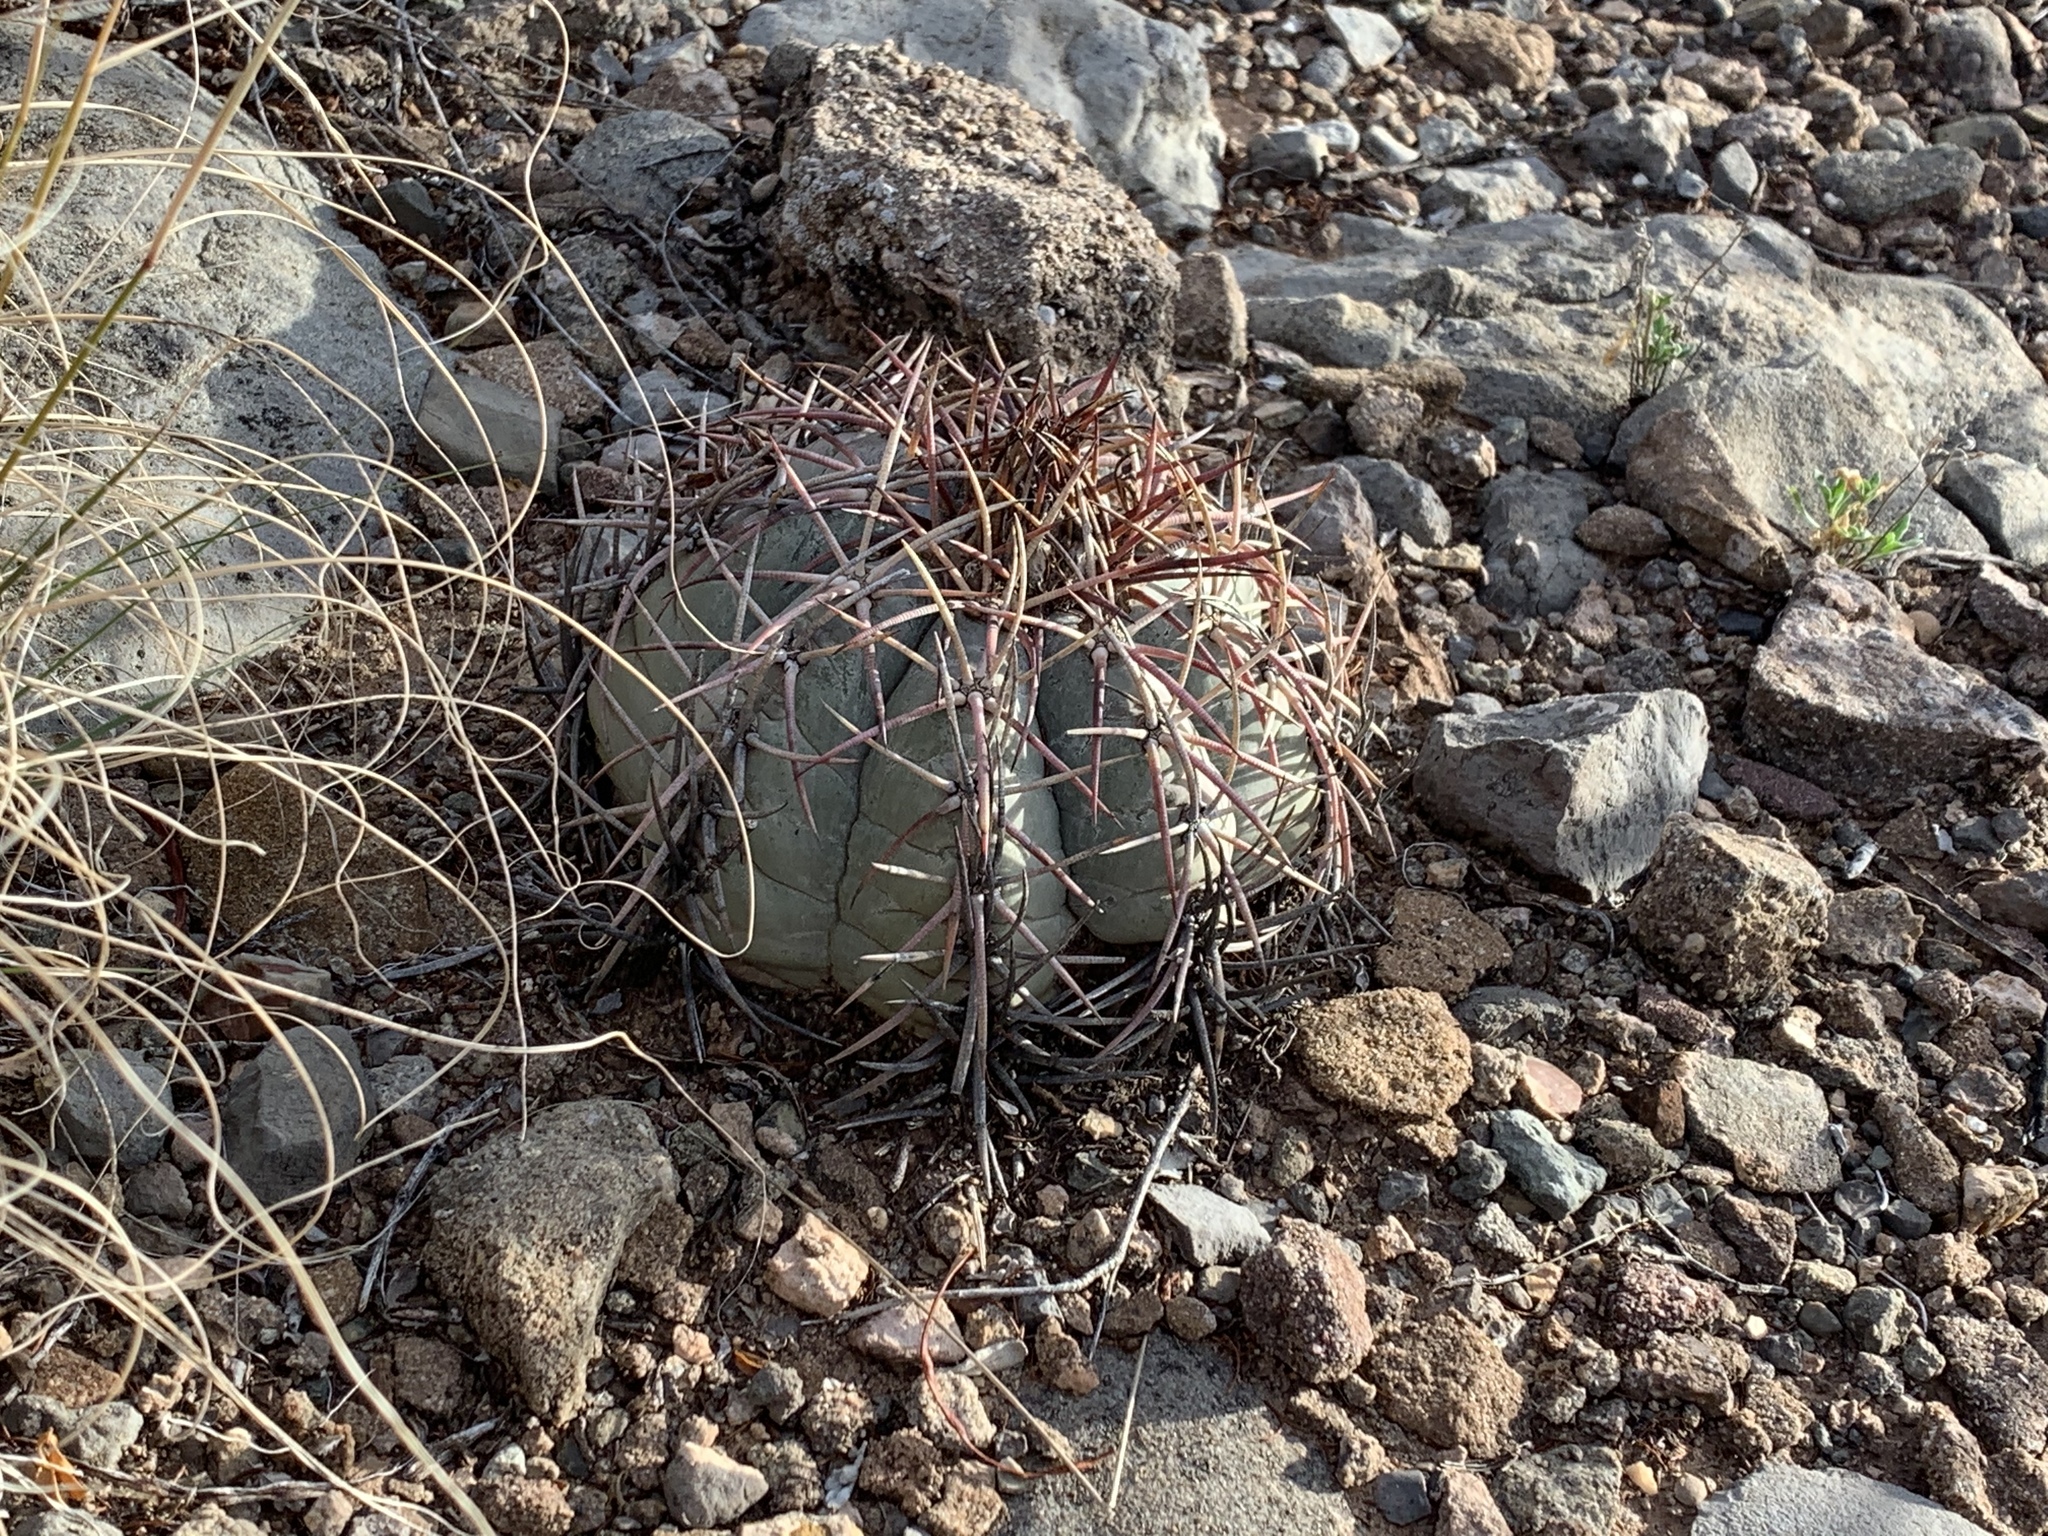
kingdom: Plantae
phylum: Tracheophyta
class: Magnoliopsida
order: Caryophyllales
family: Cactaceae
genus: Echinocactus
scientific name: Echinocactus horizonthalonius
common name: Devilshead
